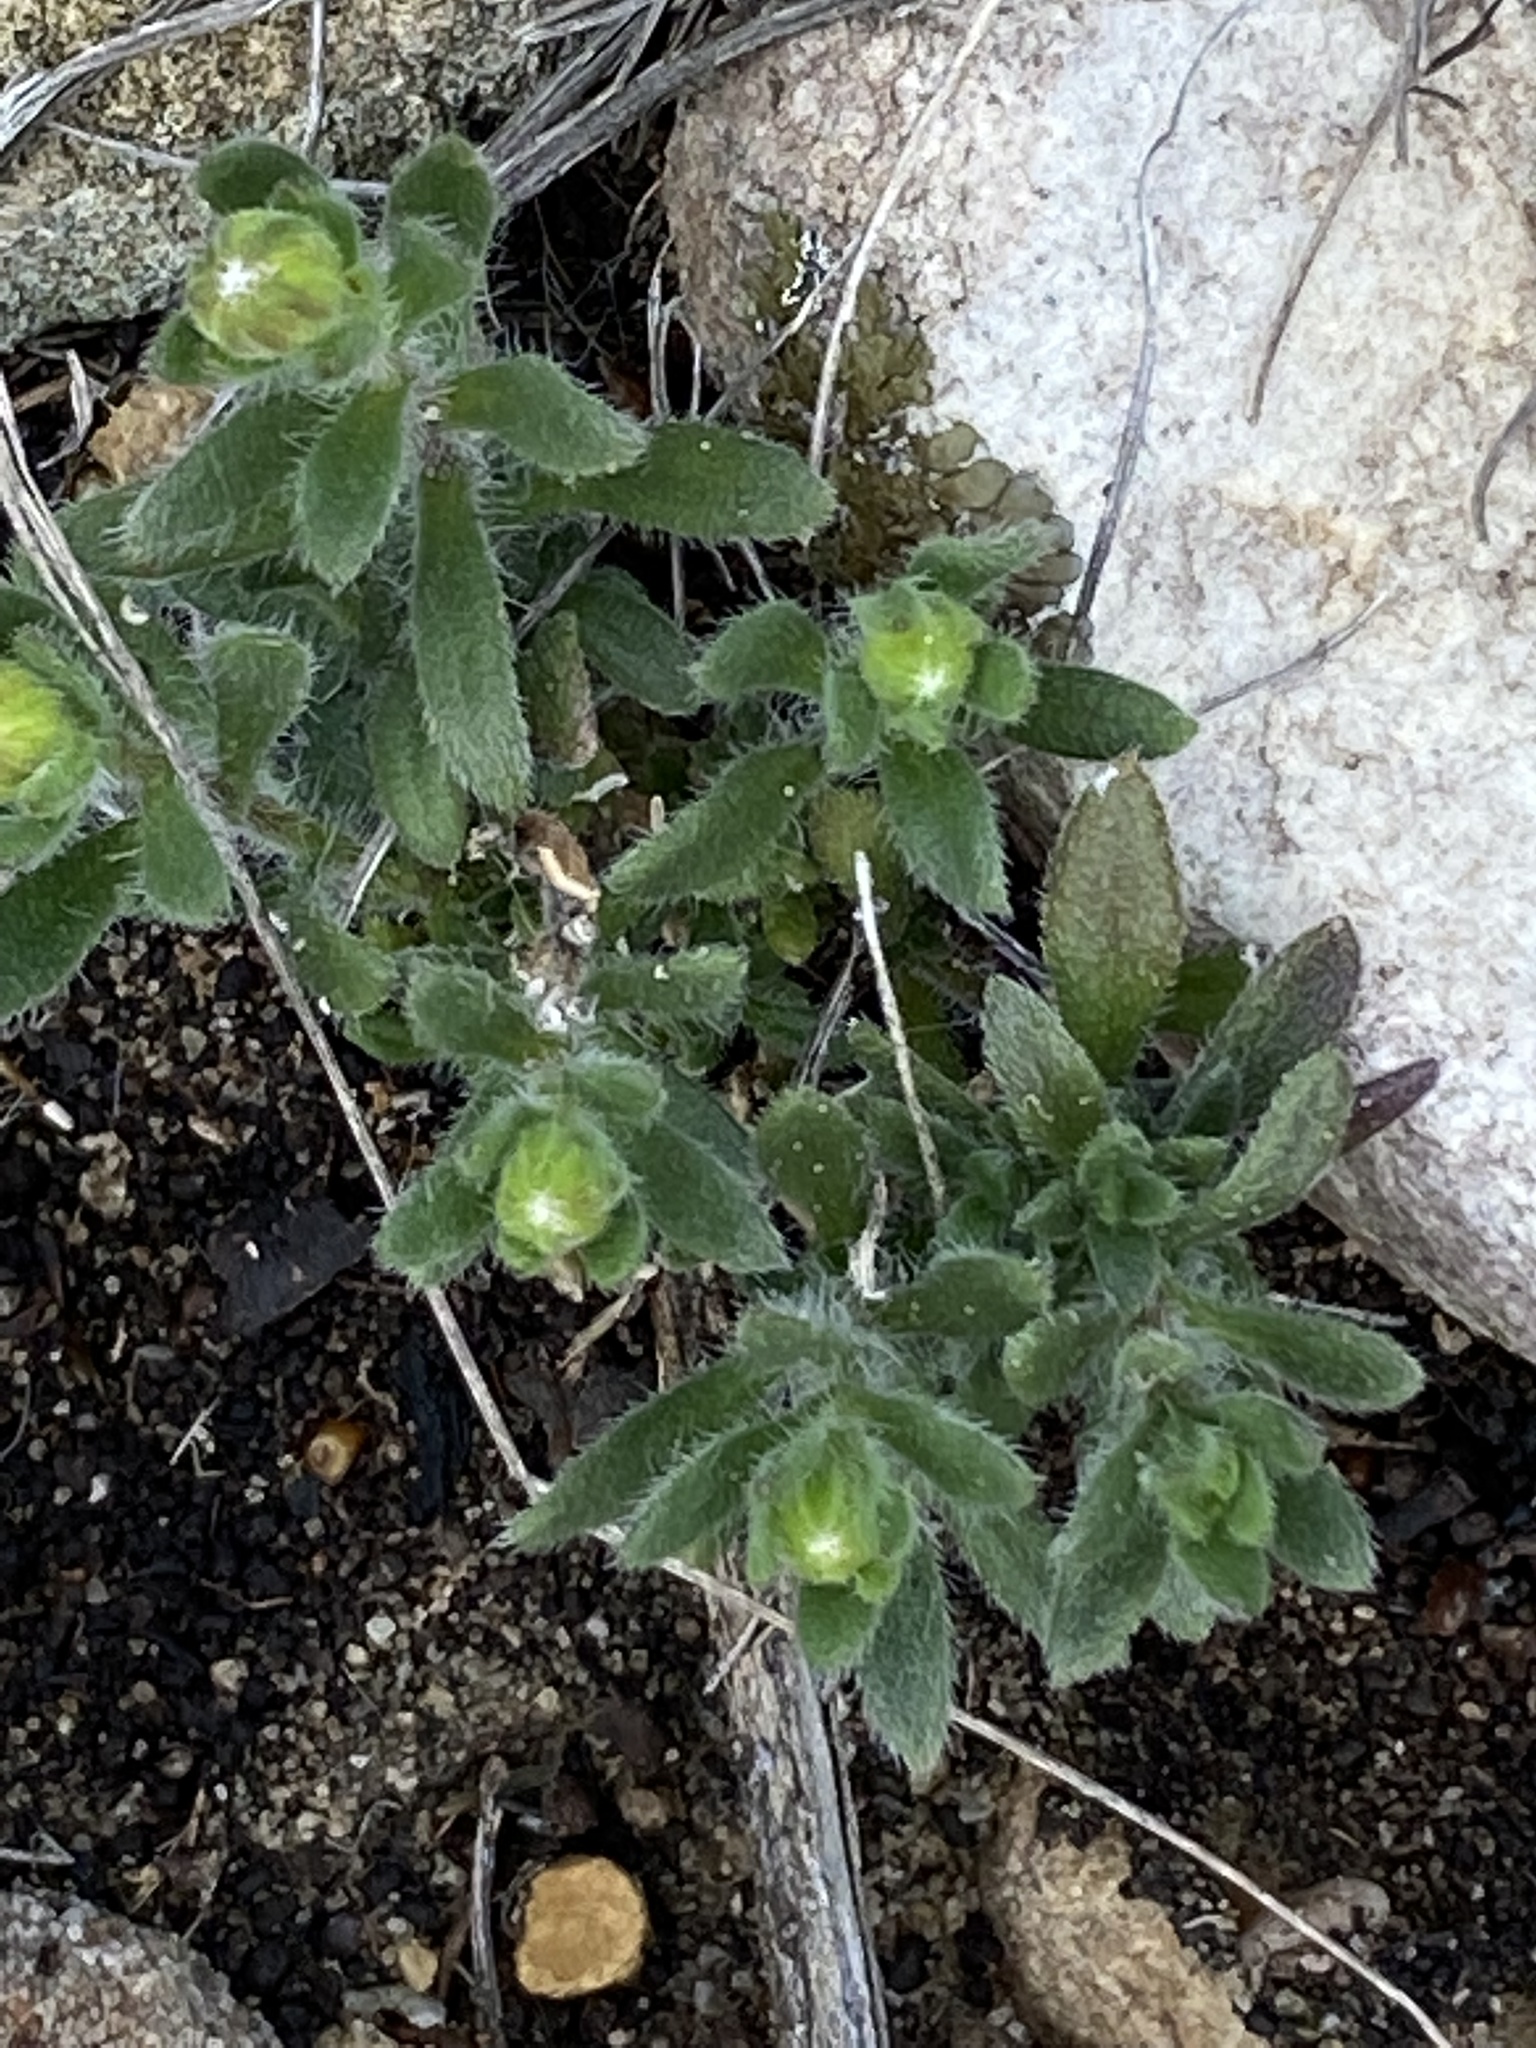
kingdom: Plantae
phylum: Tracheophyta
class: Magnoliopsida
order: Asterales
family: Asteraceae
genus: Felicia
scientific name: Felicia amoena
